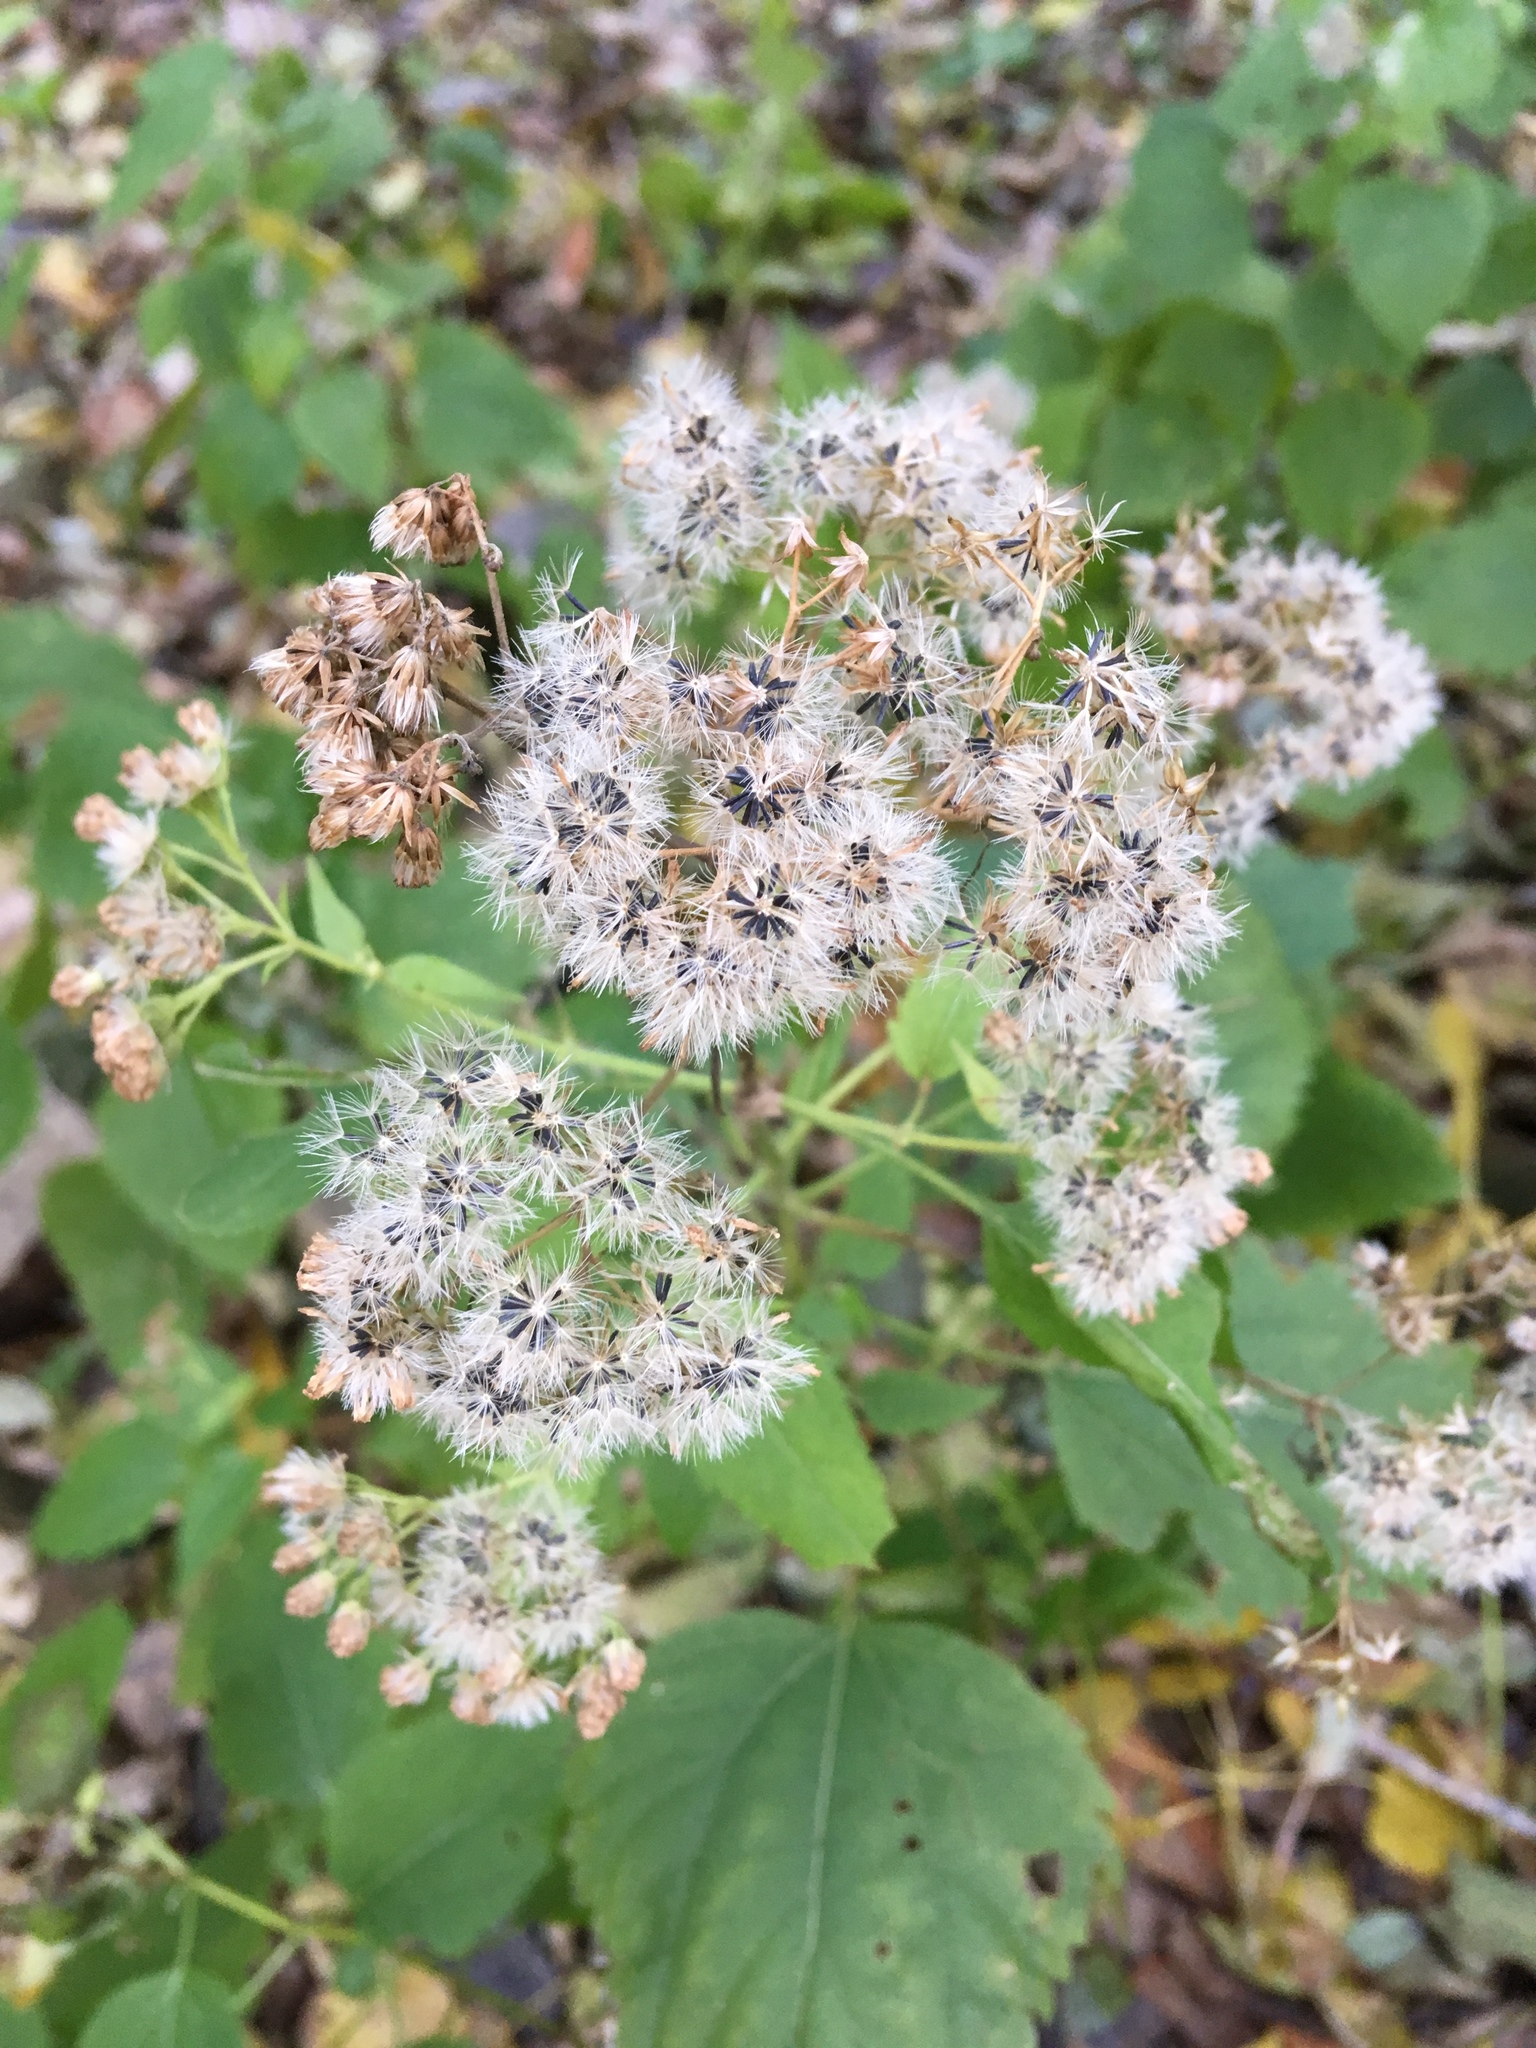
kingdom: Plantae
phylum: Tracheophyta
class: Magnoliopsida
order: Asterales
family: Asteraceae
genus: Ageratina
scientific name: Ageratina altissima
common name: White snakeroot
